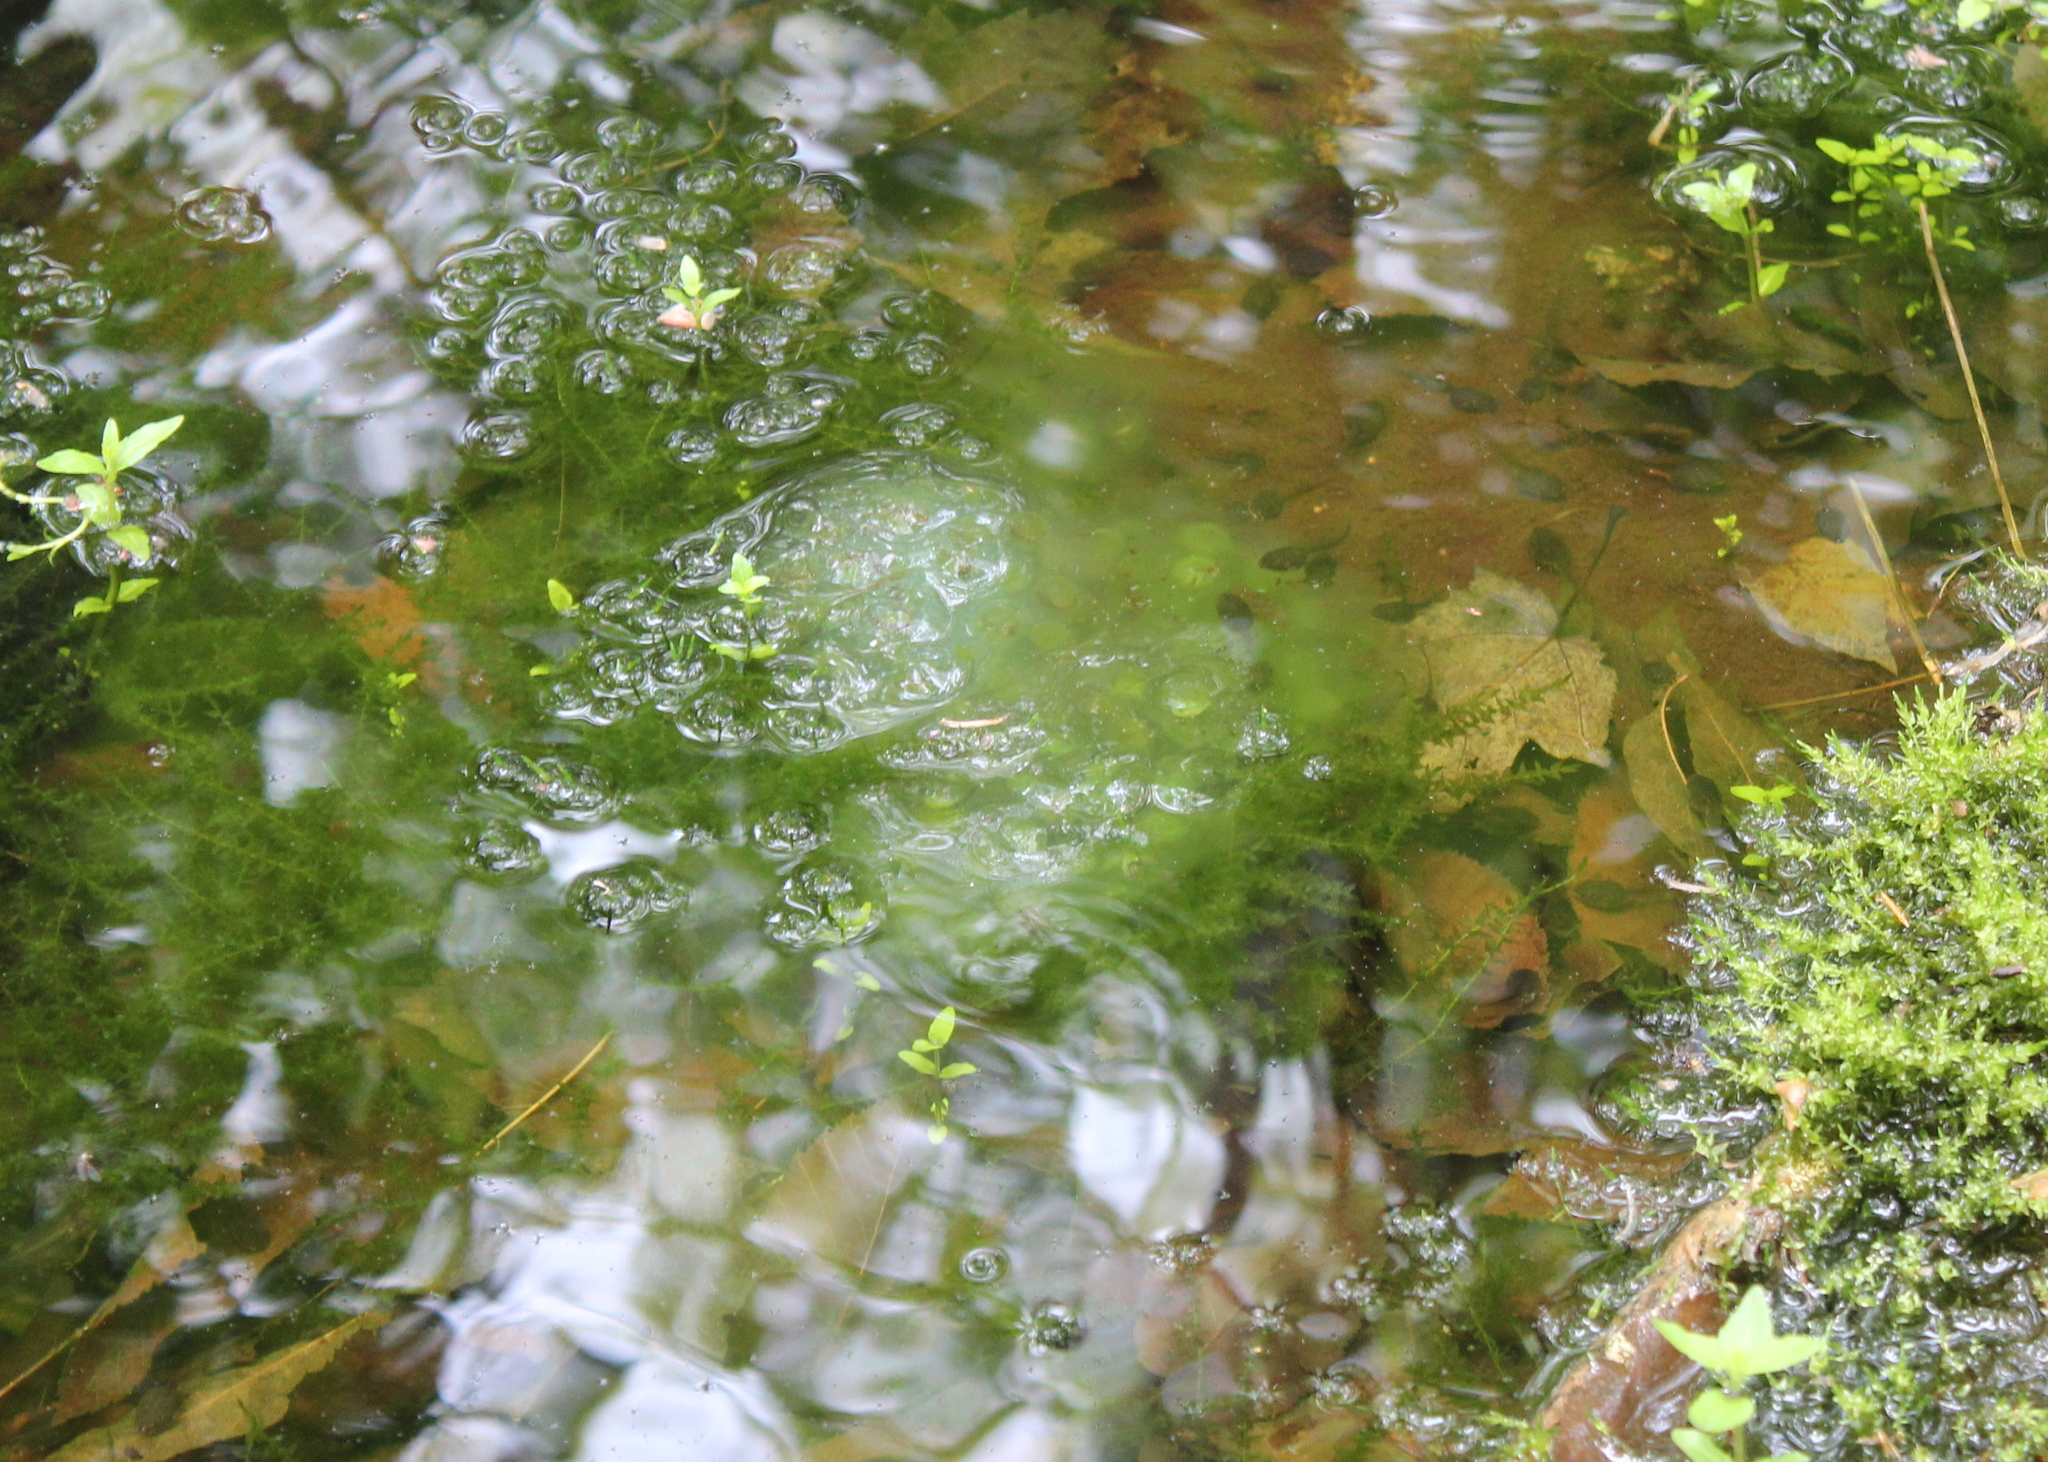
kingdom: Animalia
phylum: Chordata
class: Amphibia
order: Caudata
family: Ambystomatidae
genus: Ambystoma
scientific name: Ambystoma maculatum
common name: Spotted salamander
